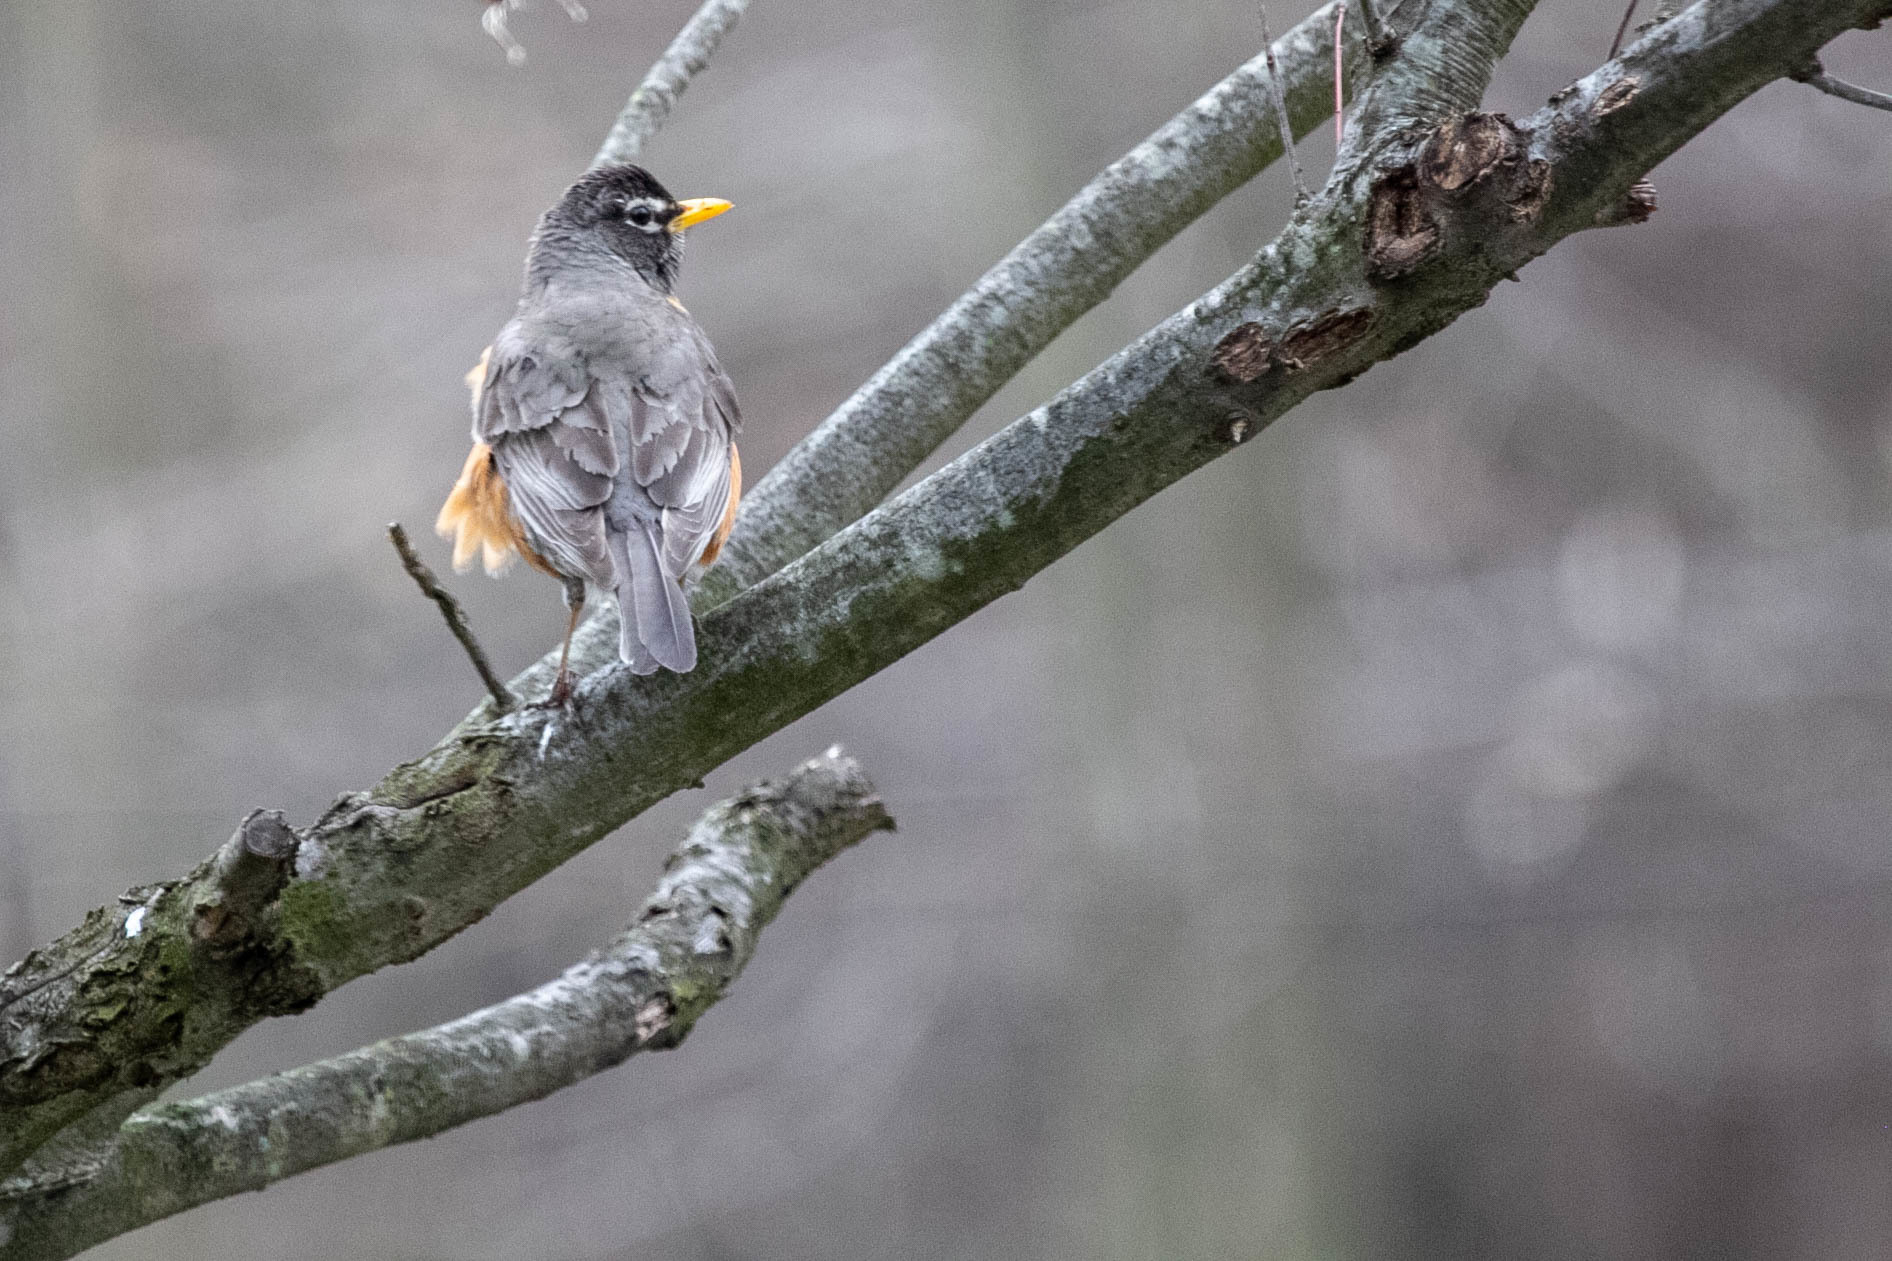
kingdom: Animalia
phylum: Chordata
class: Aves
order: Passeriformes
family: Turdidae
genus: Turdus
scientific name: Turdus migratorius
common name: American robin
